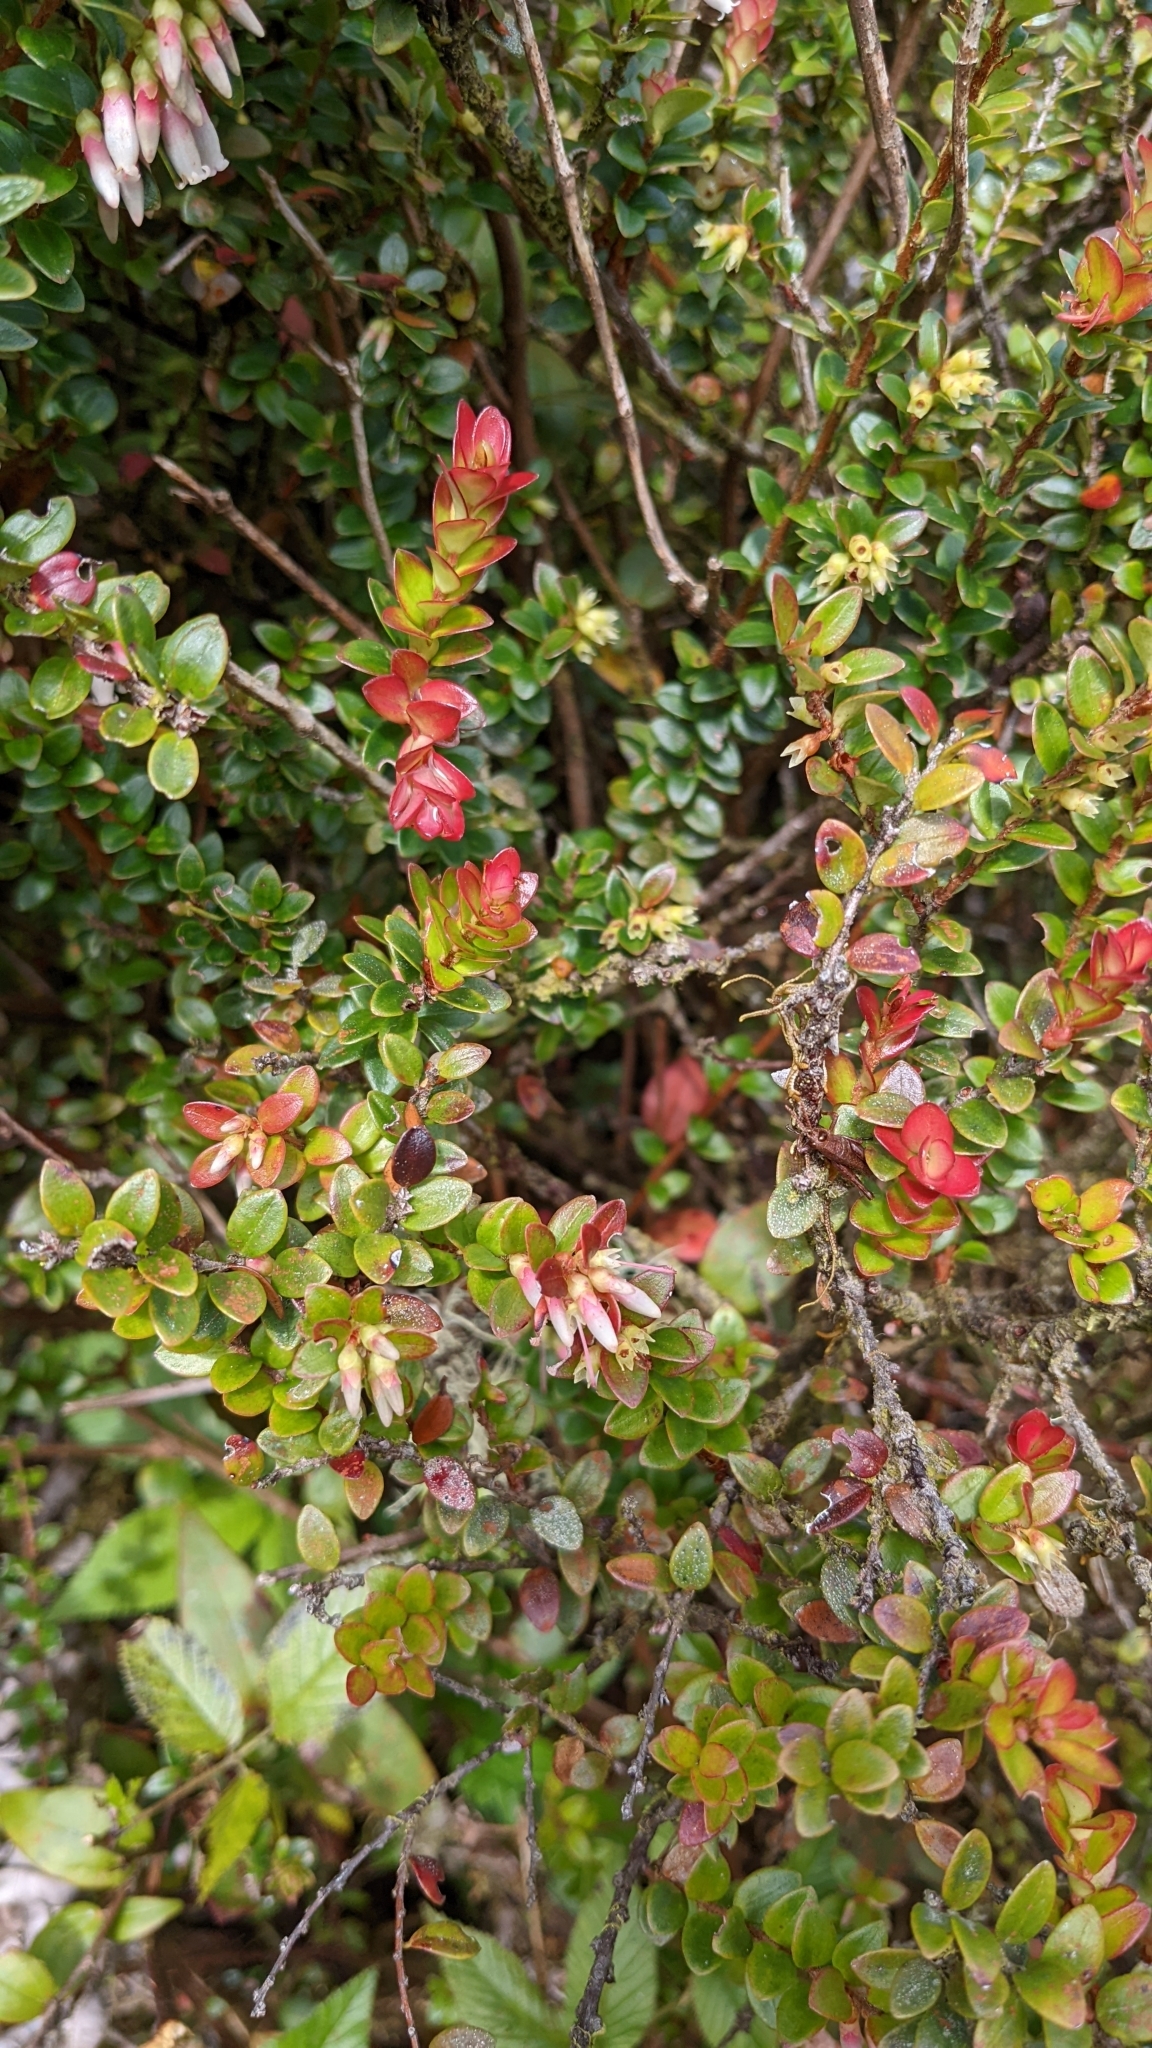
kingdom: Plantae
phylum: Tracheophyta
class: Magnoliopsida
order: Ericales
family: Ericaceae
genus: Disterigma
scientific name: Disterigma humboldtii
